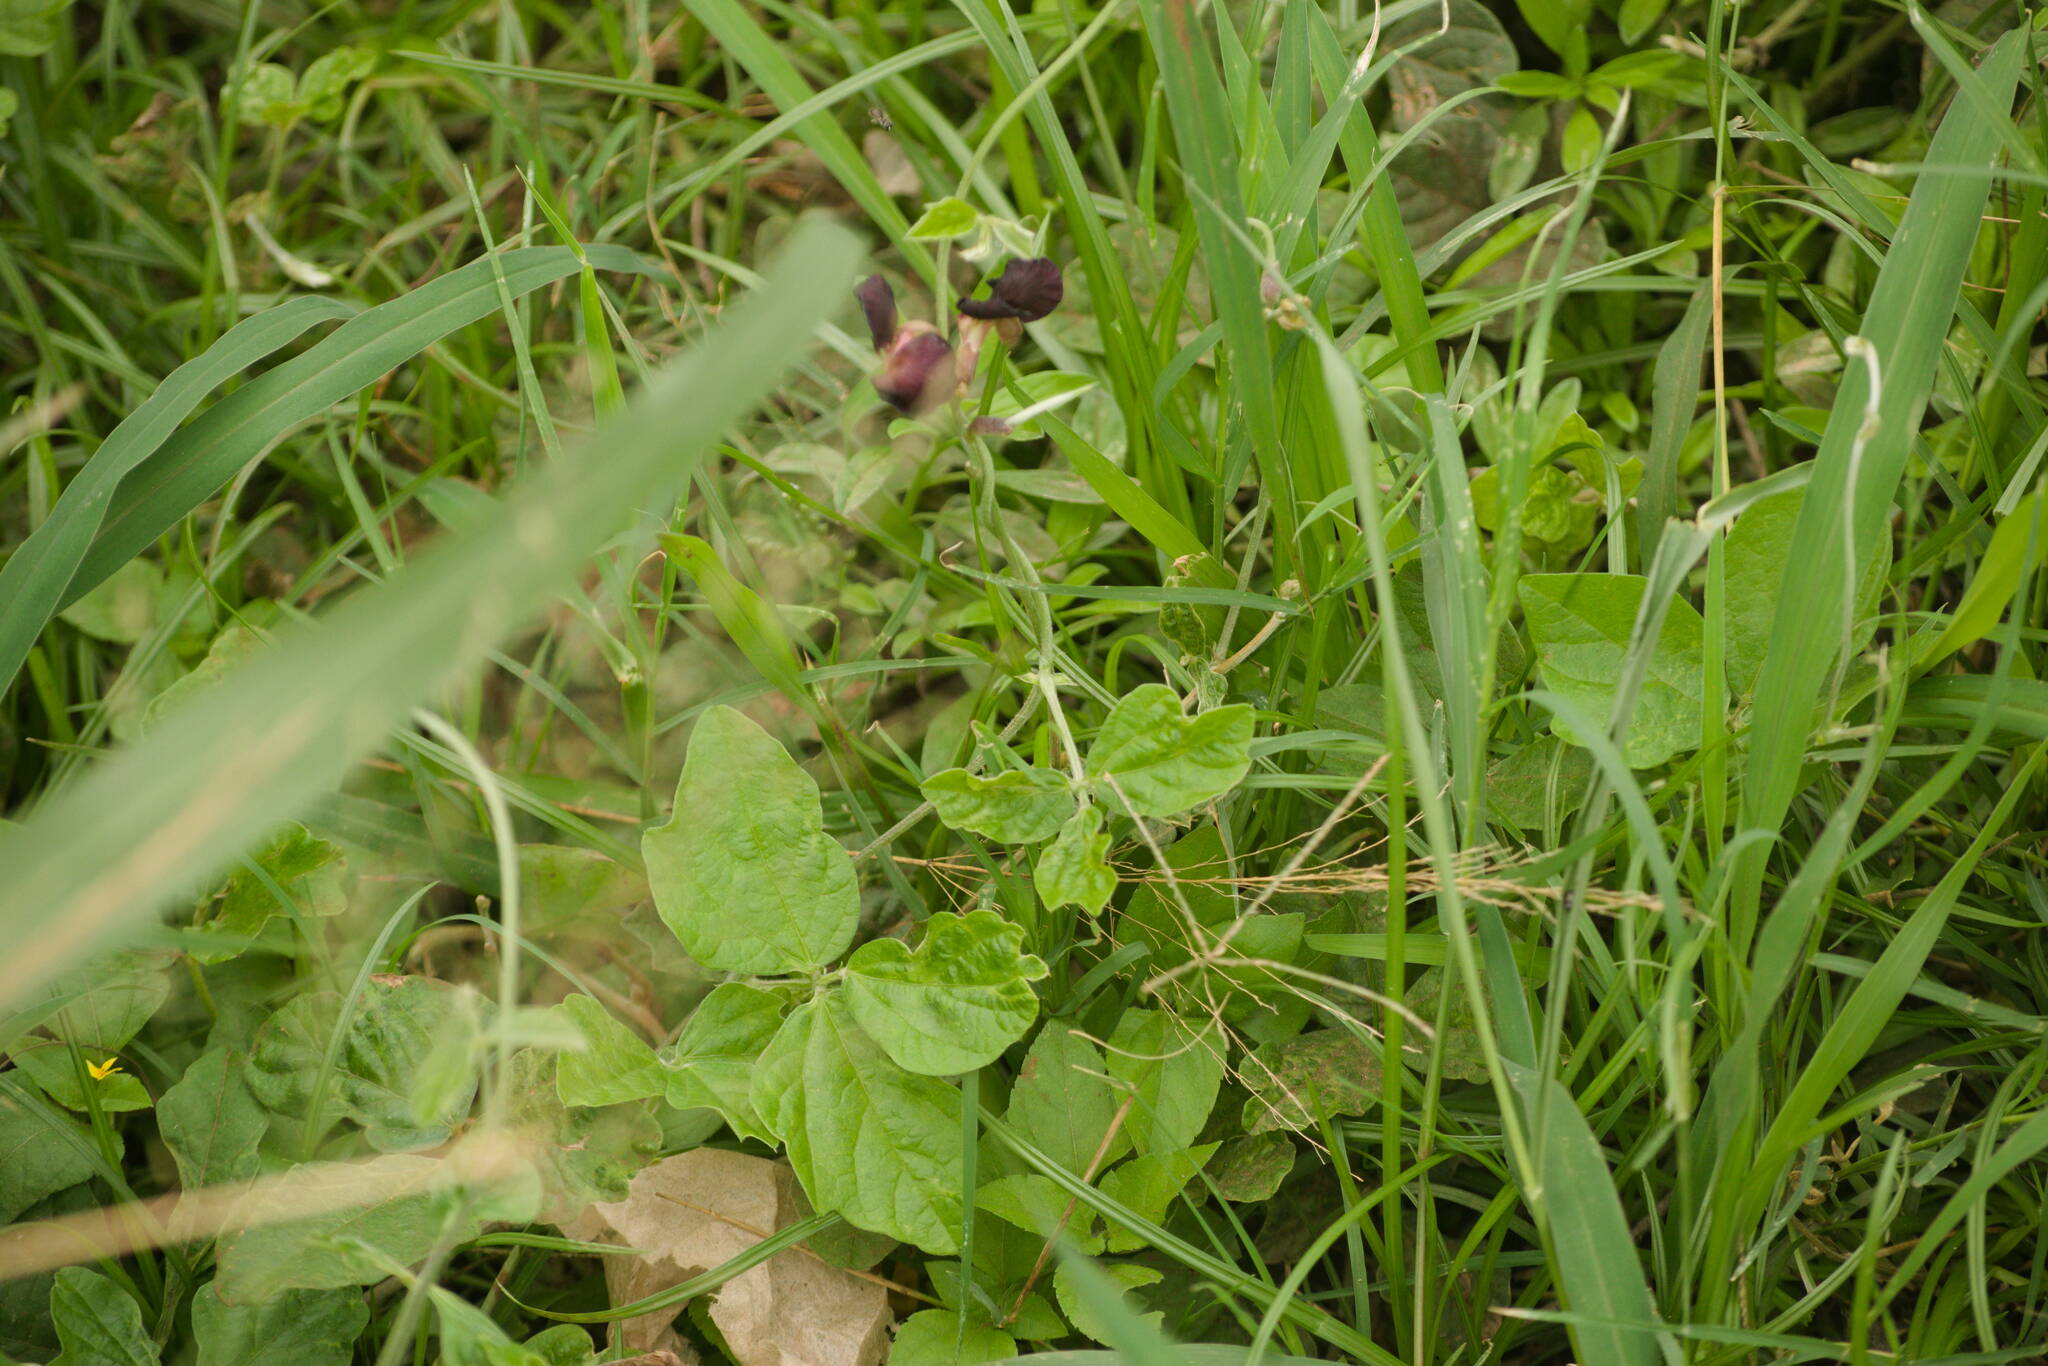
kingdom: Plantae
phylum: Tracheophyta
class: Magnoliopsida
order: Fabales
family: Fabaceae
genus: Macroptilium
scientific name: Macroptilium atropurpureum
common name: Purple bushbean
